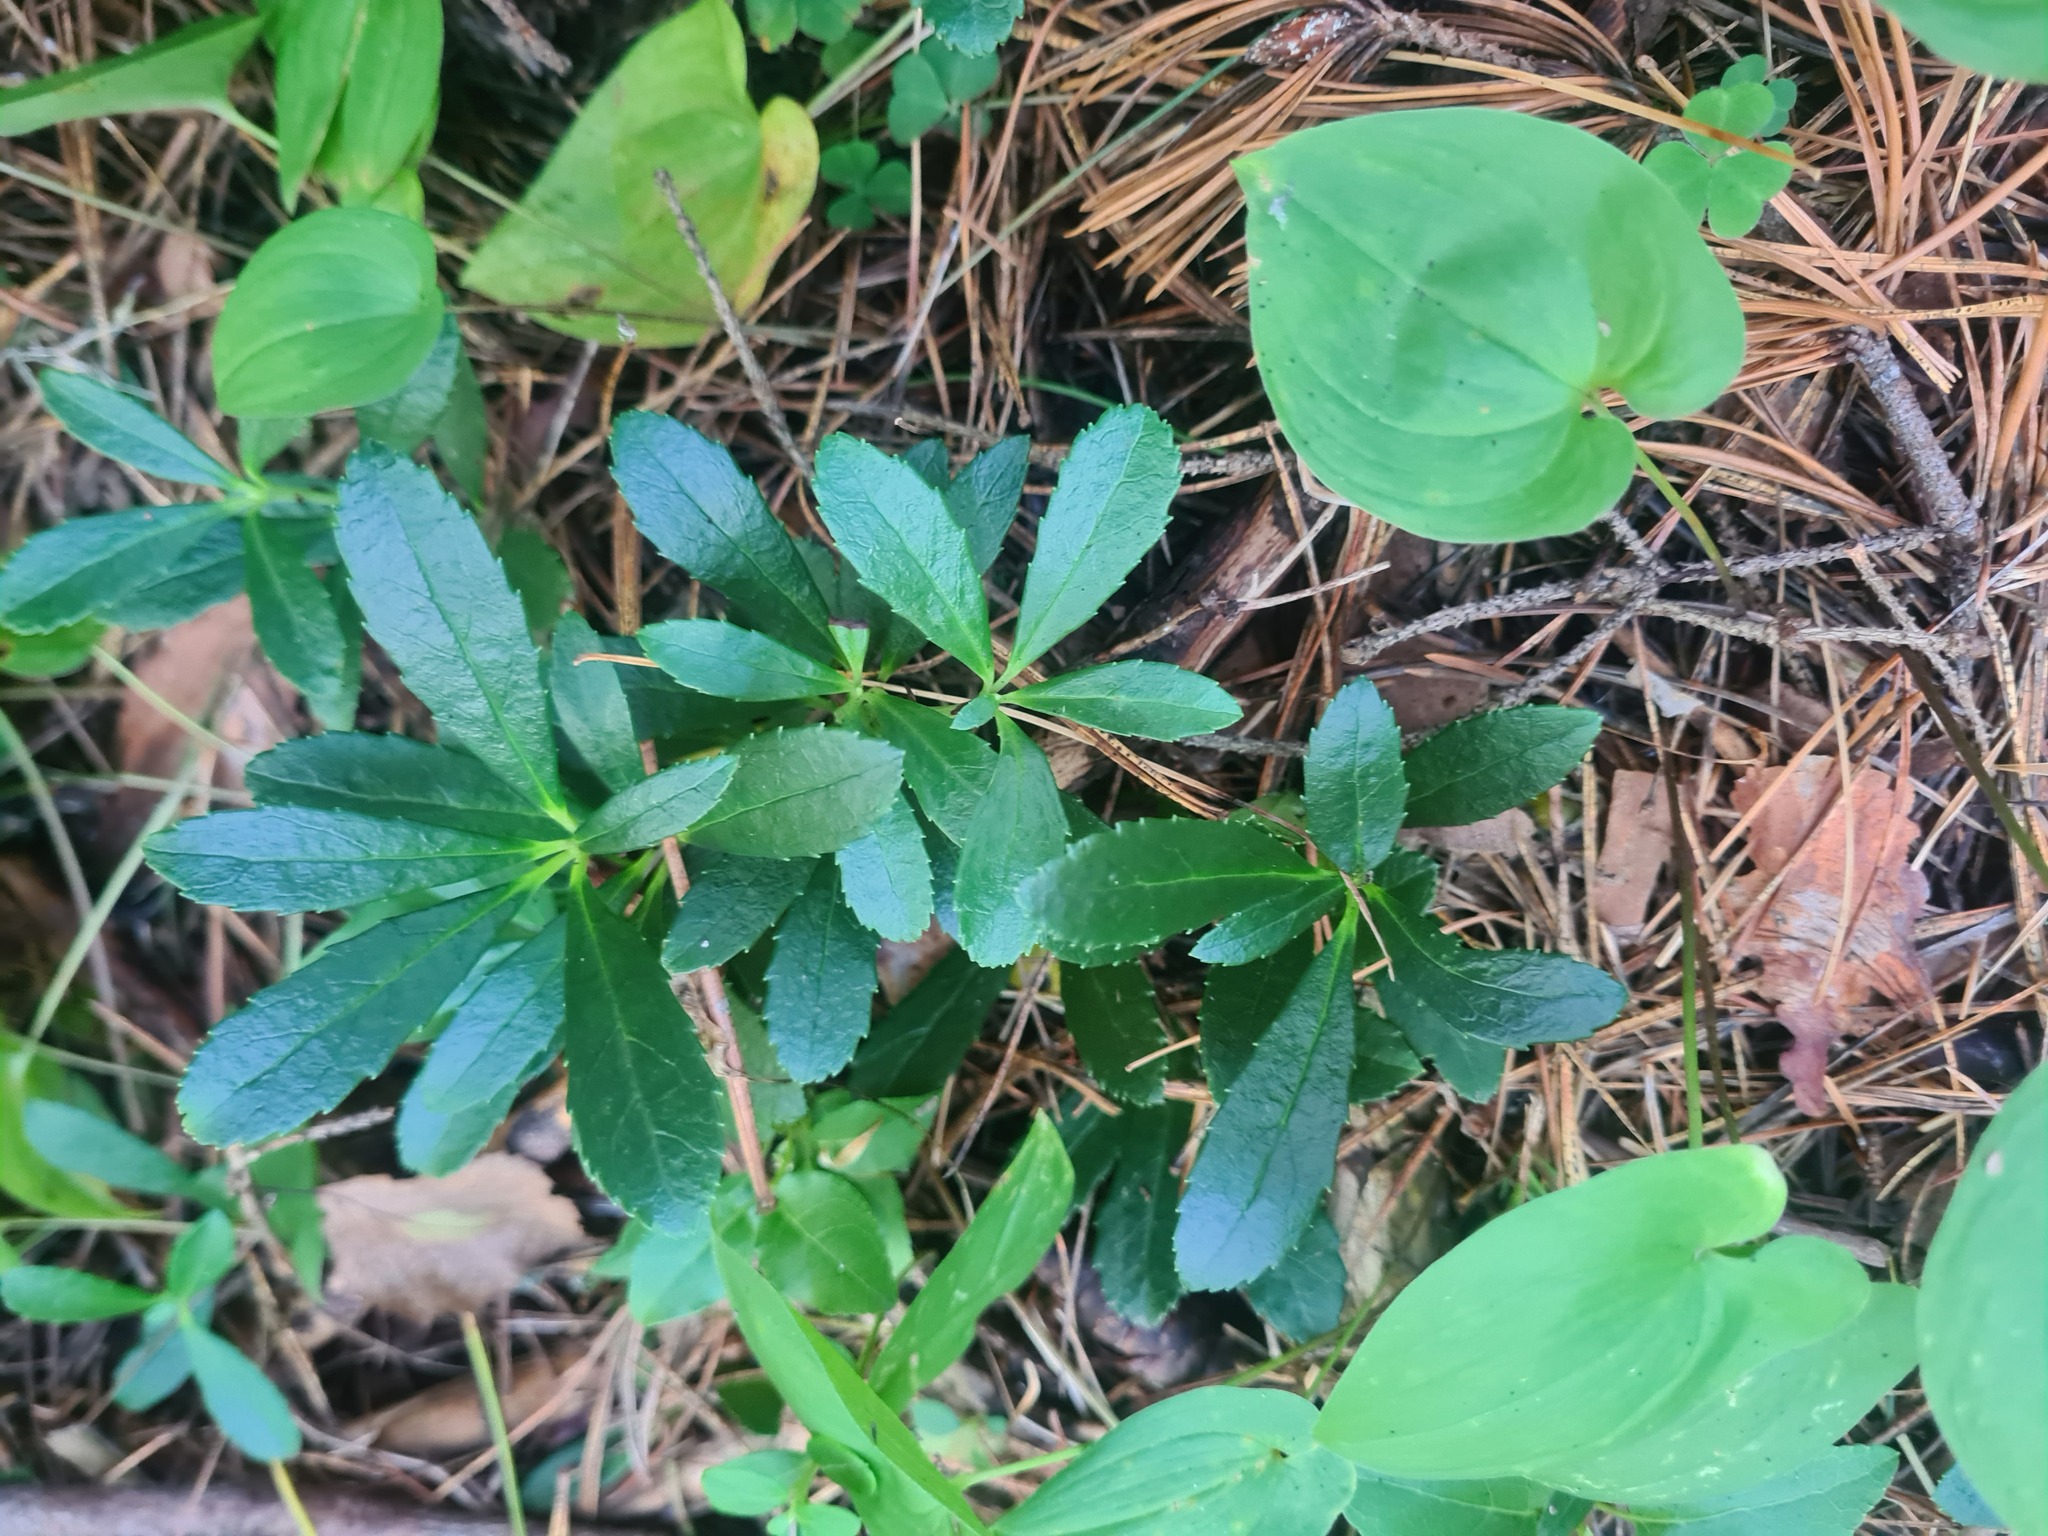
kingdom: Plantae
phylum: Tracheophyta
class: Magnoliopsida
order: Ericales
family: Ericaceae
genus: Chimaphila
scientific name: Chimaphila umbellata
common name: Pipsissewa
